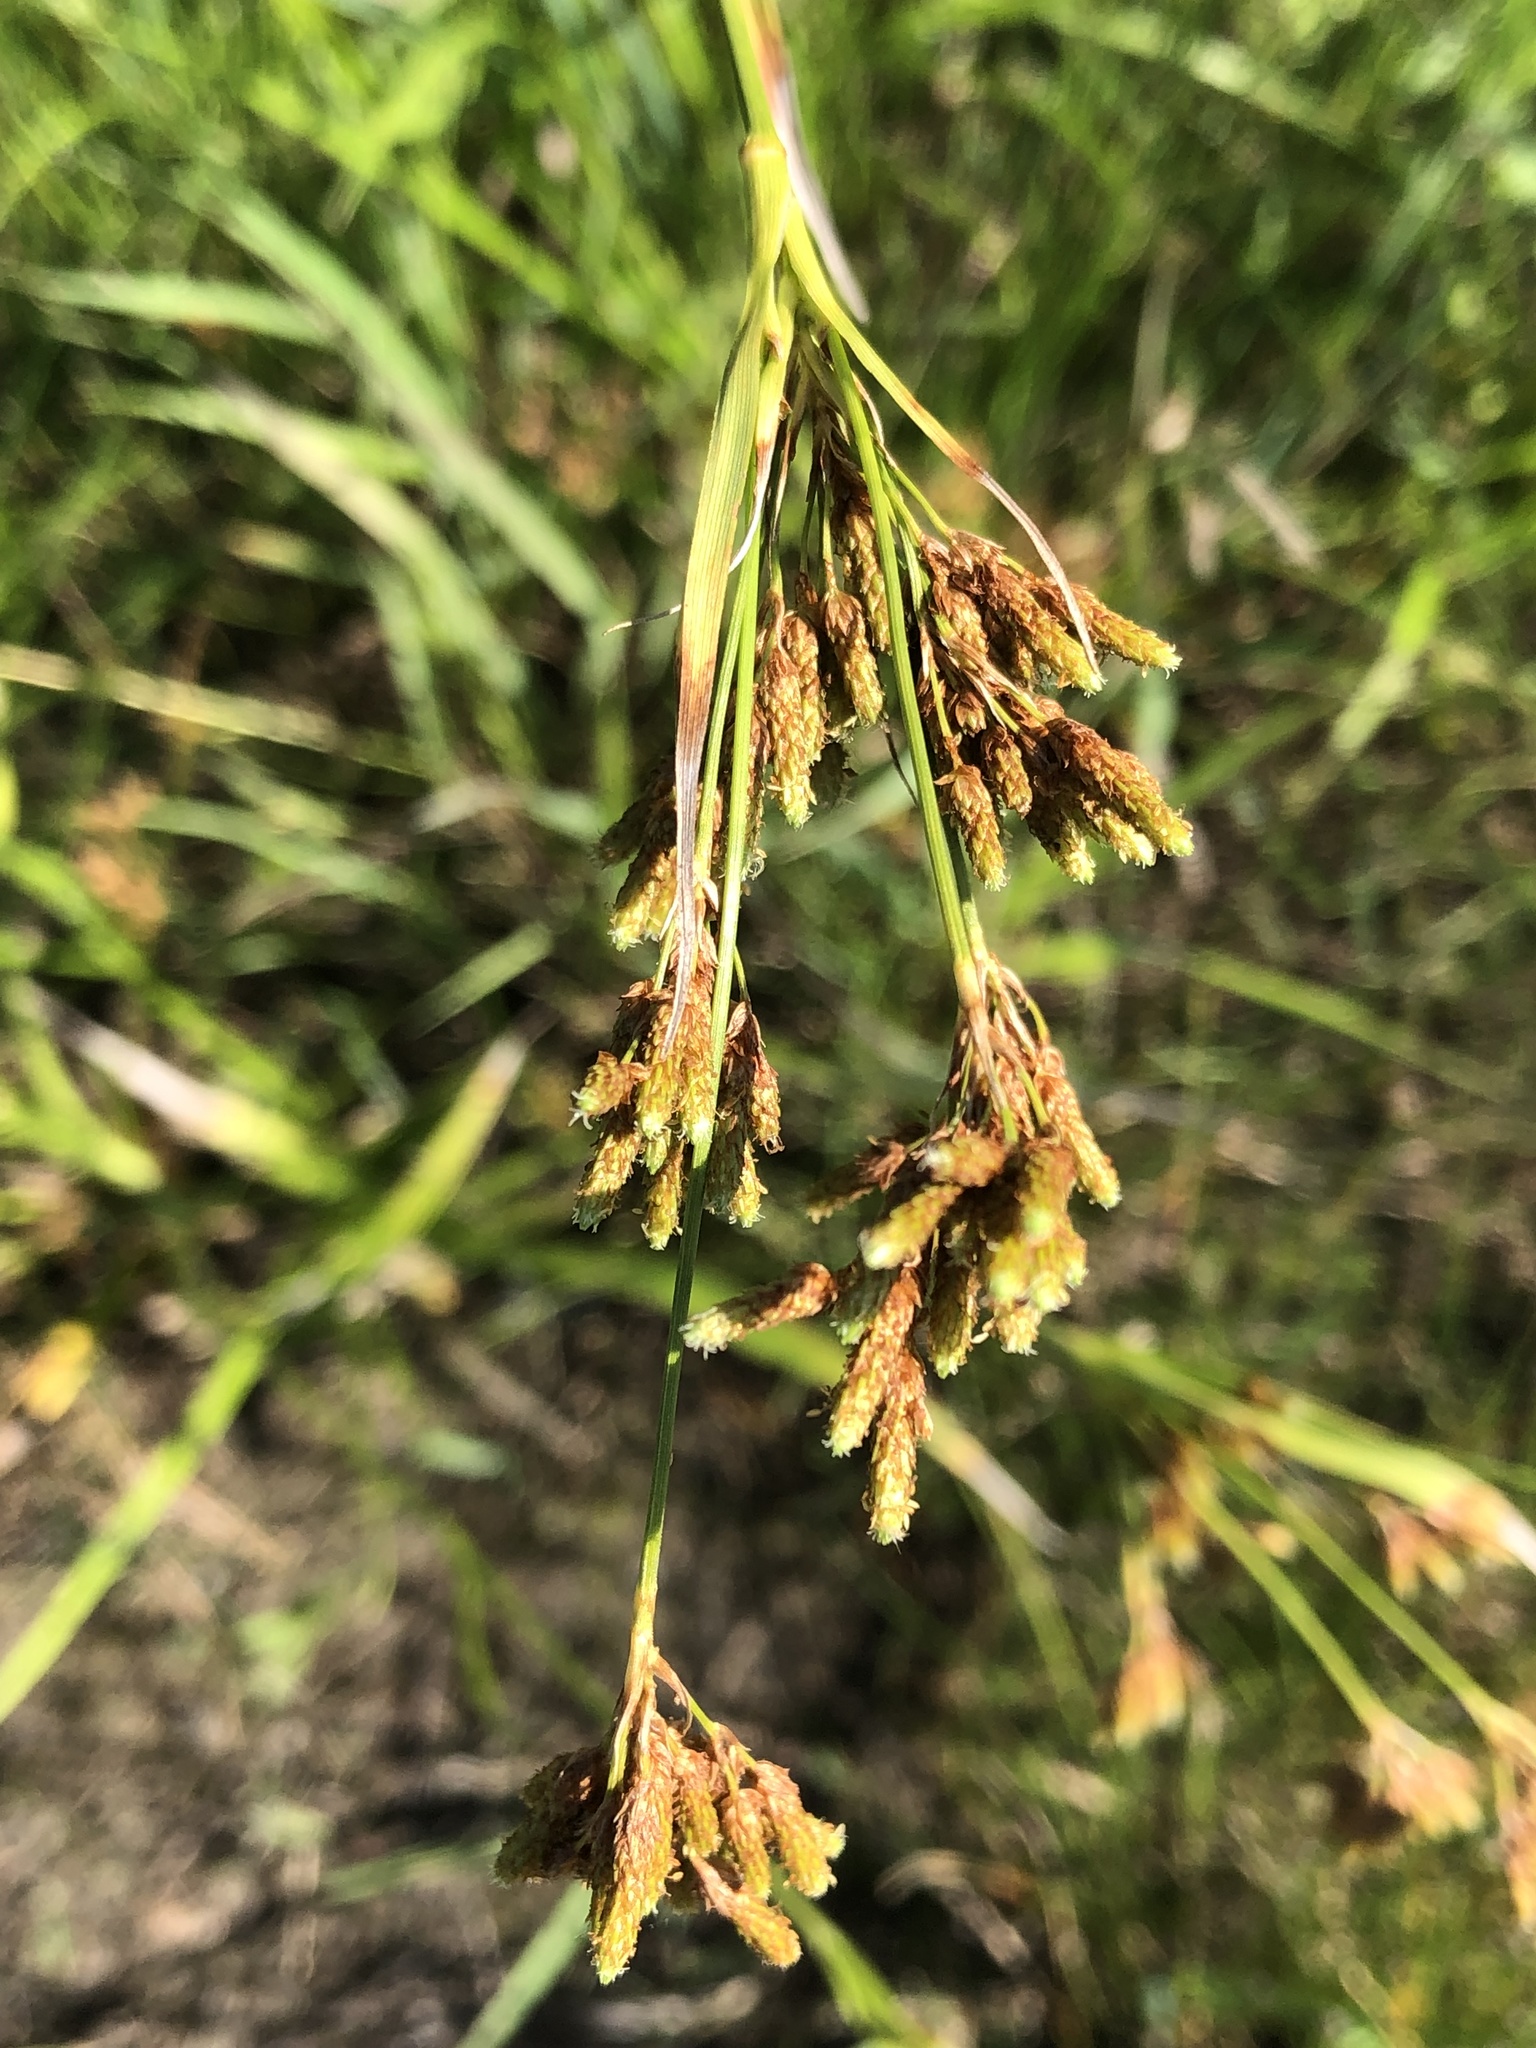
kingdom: Plantae
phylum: Tracheophyta
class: Liliopsida
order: Poales
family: Cyperaceae
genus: Scirpus
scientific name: Scirpus pendulus
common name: Nodding bulrush
